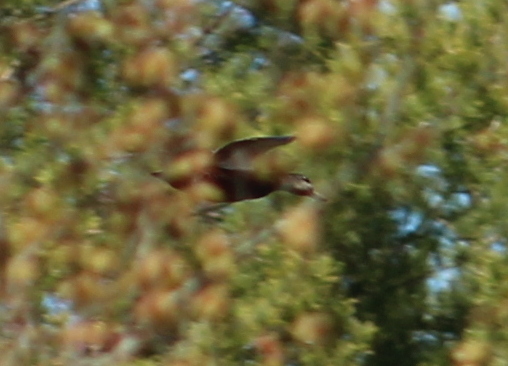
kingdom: Animalia
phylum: Chordata
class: Aves
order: Anseriformes
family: Anatidae
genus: Anas
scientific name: Anas rubripes
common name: American black duck
